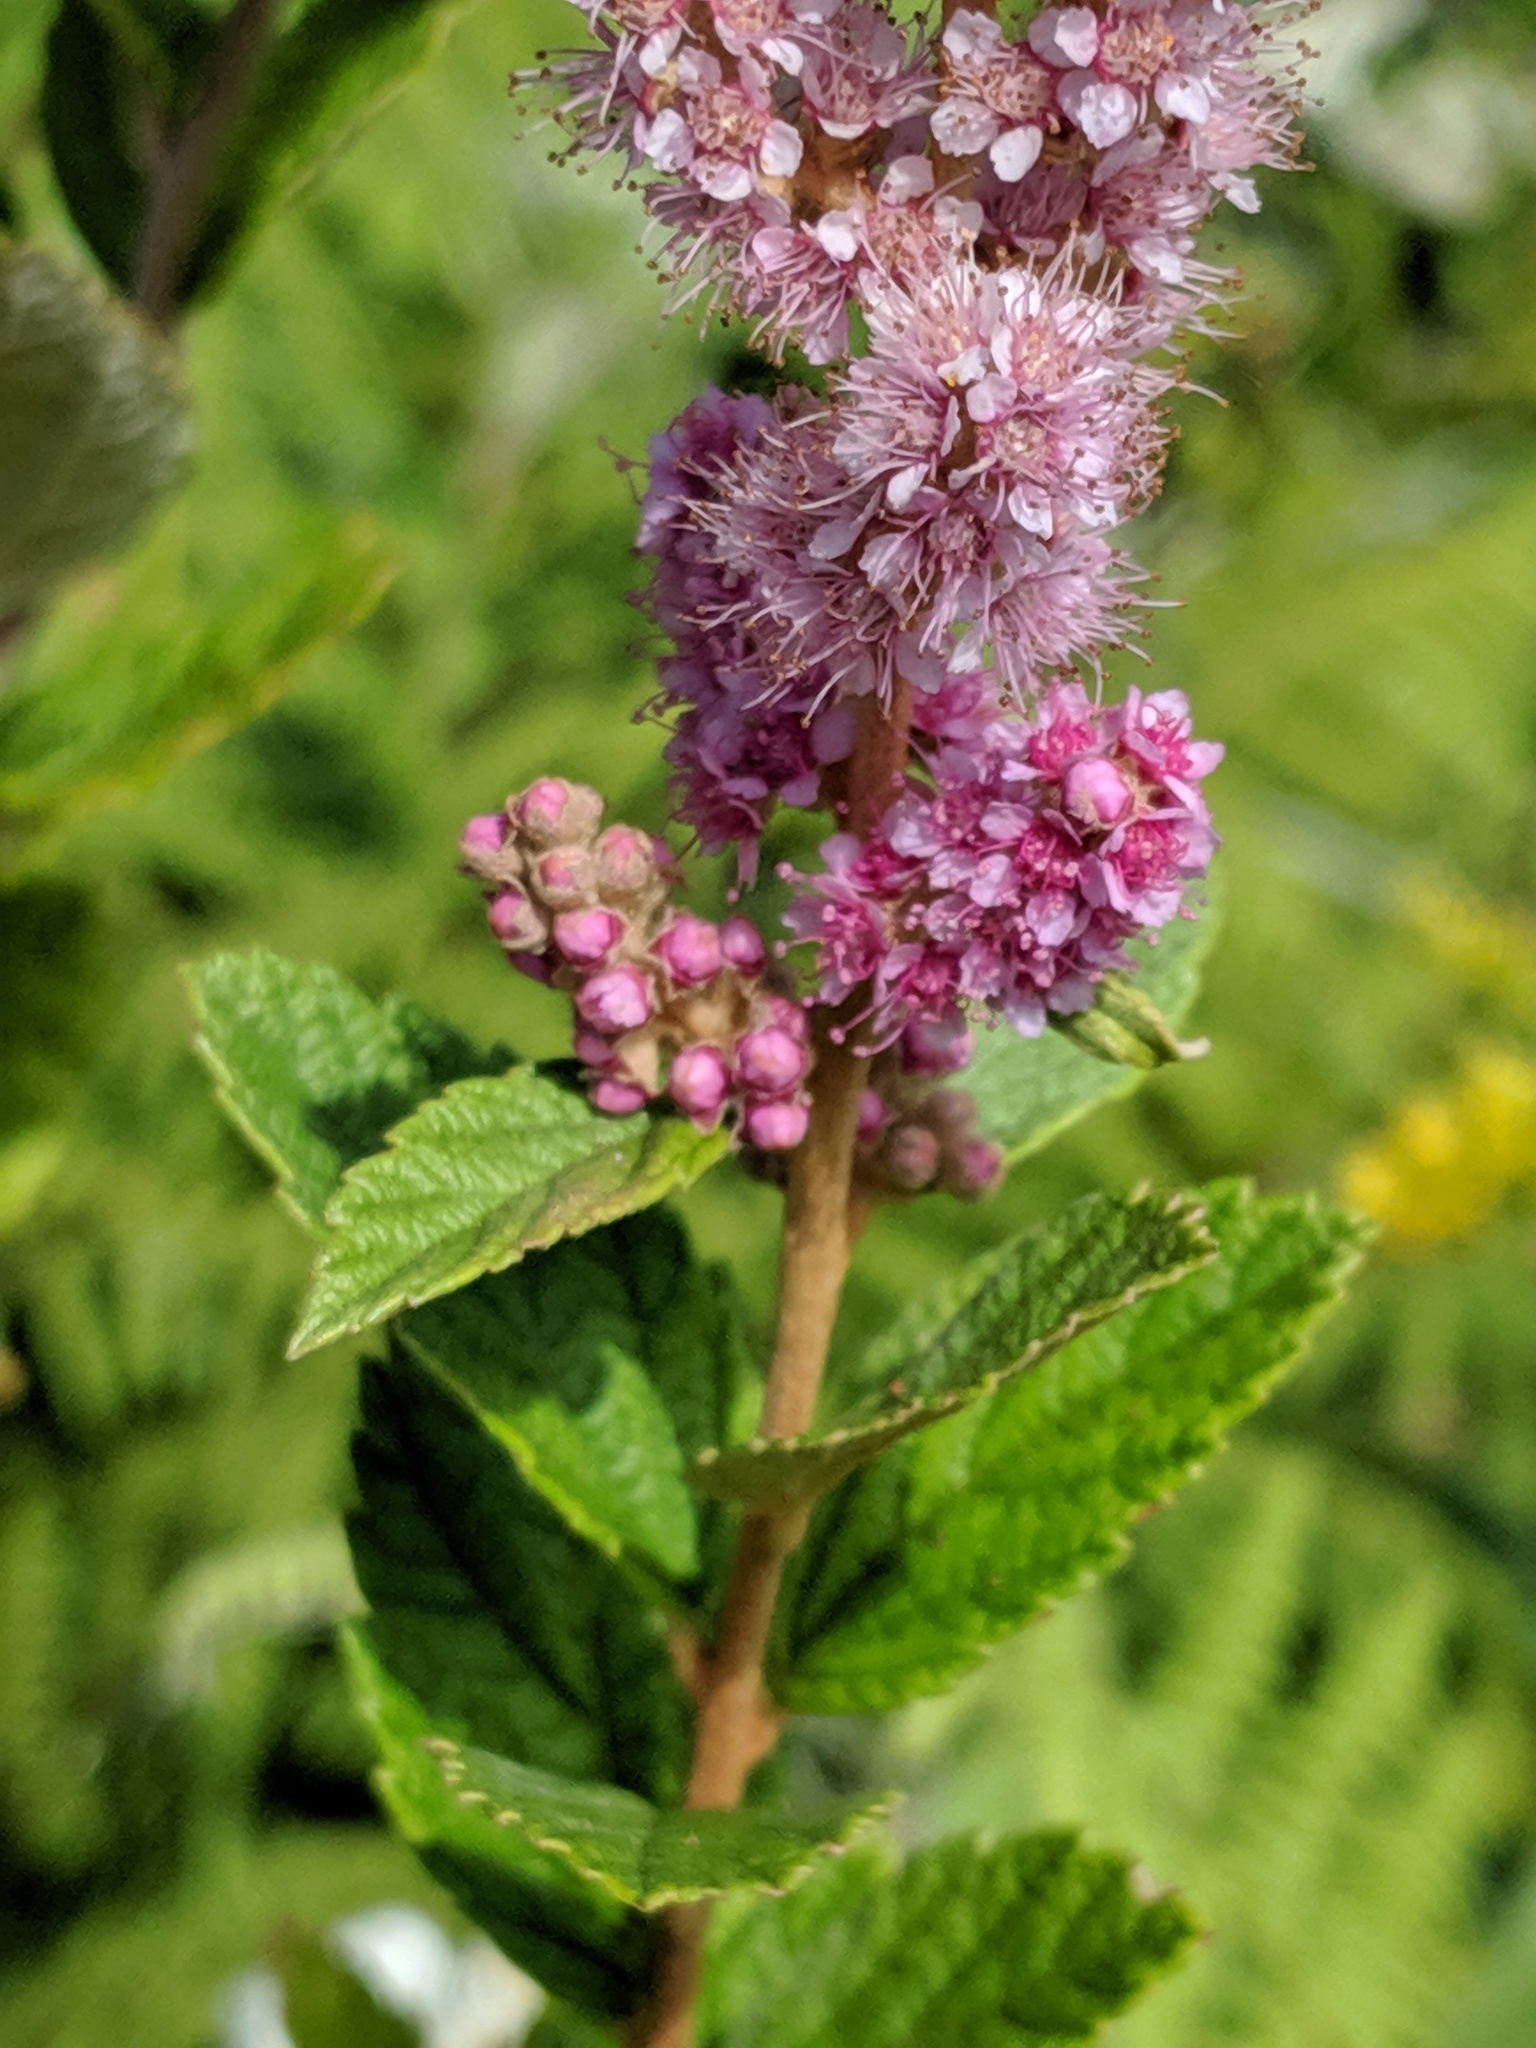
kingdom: Plantae
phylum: Tracheophyta
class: Magnoliopsida
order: Rosales
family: Rosaceae
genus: Spiraea
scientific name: Spiraea tomentosa
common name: Hardhack
